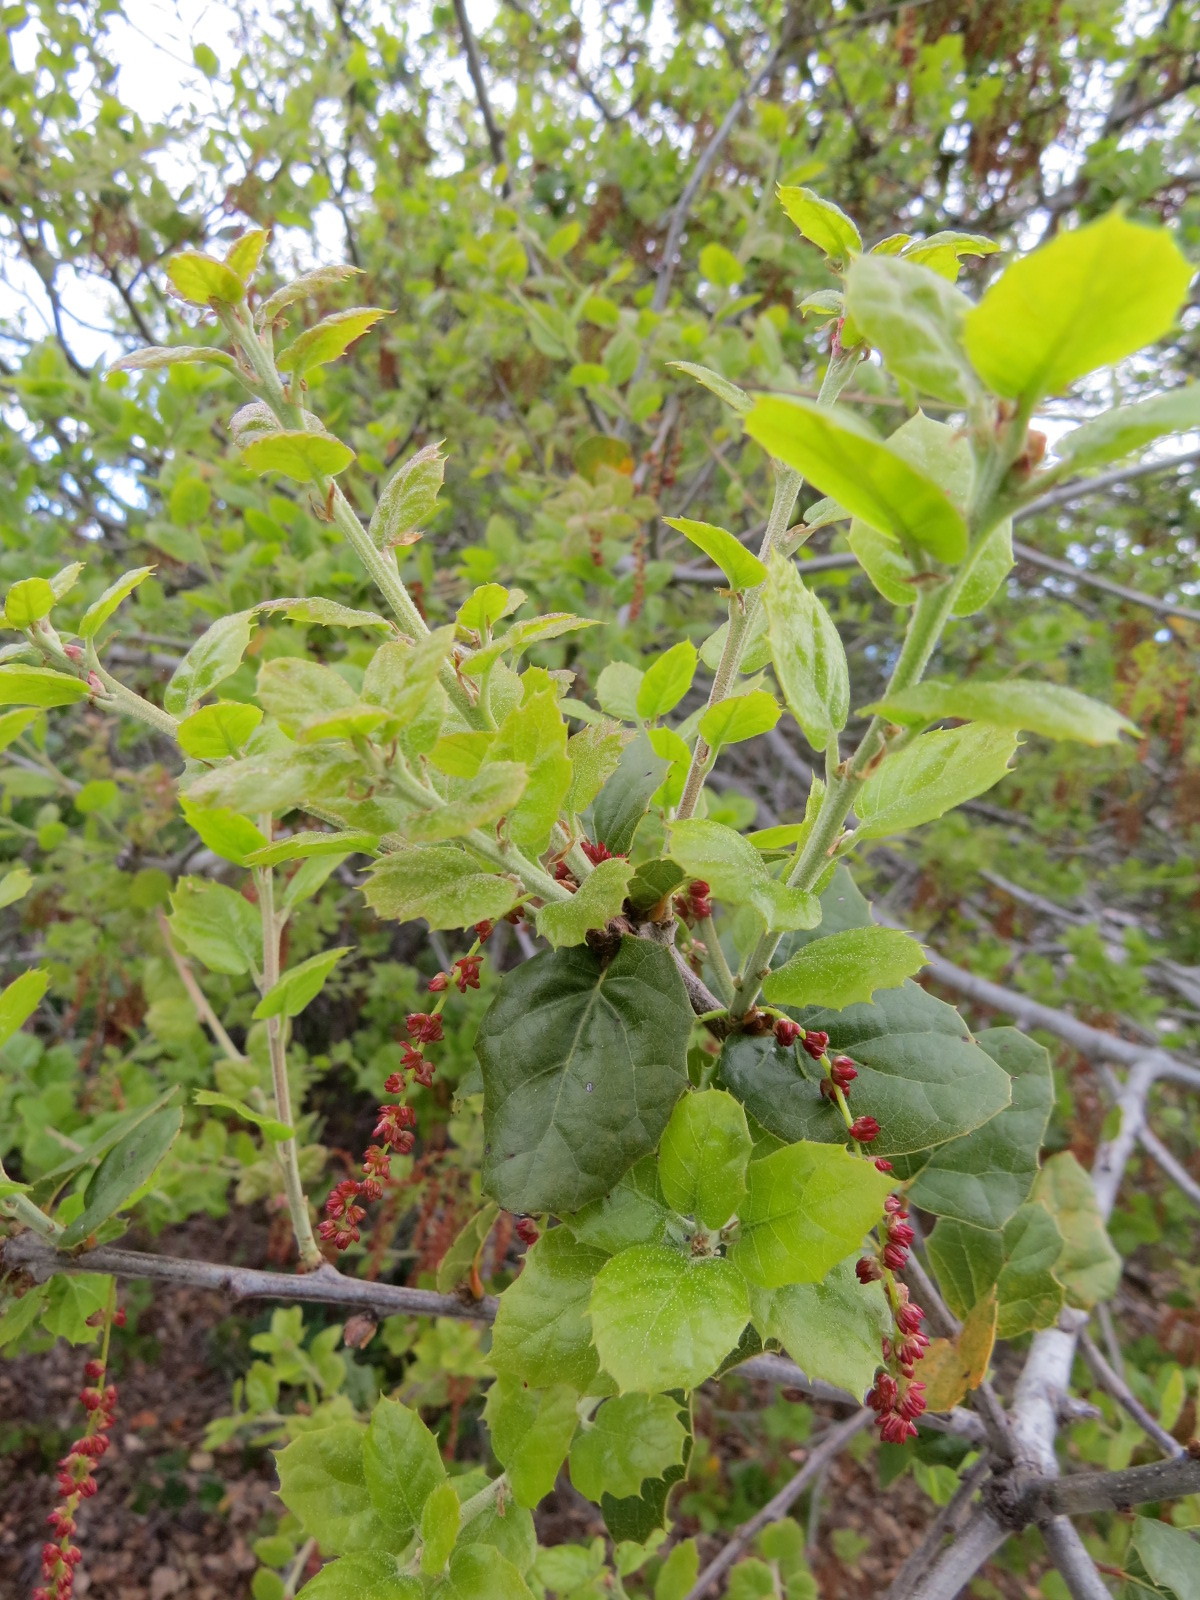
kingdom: Plantae
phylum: Tracheophyta
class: Magnoliopsida
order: Fagales
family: Fagaceae
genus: Quercus
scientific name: Quercus agrifolia
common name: California live oak
